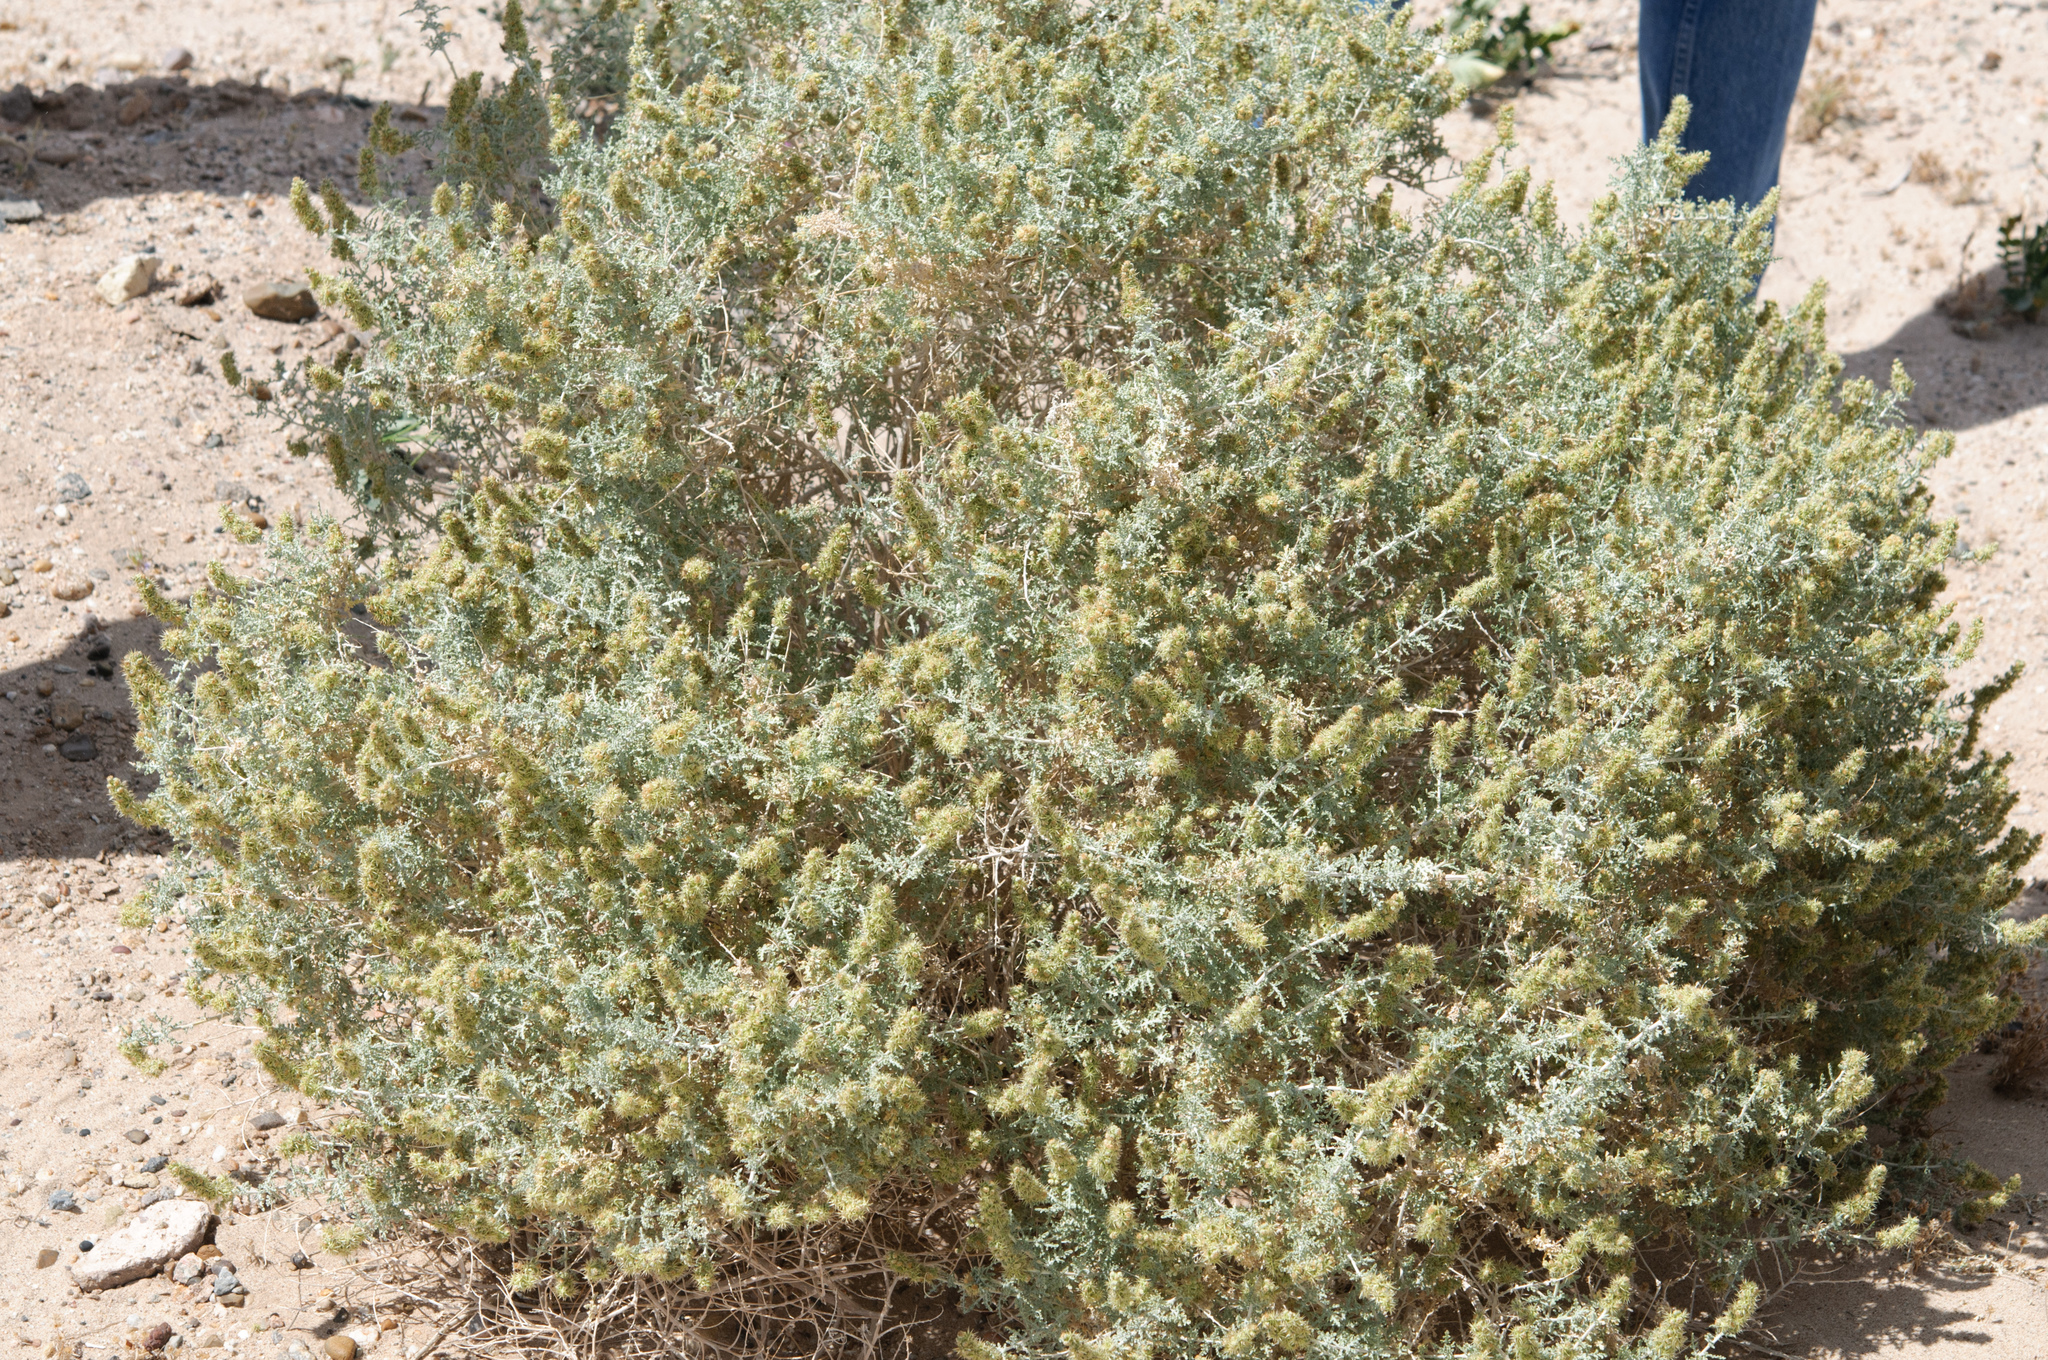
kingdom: Plantae
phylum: Tracheophyta
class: Magnoliopsida
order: Asterales
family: Asteraceae
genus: Ambrosia
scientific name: Ambrosia dumosa
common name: Bur-sage
